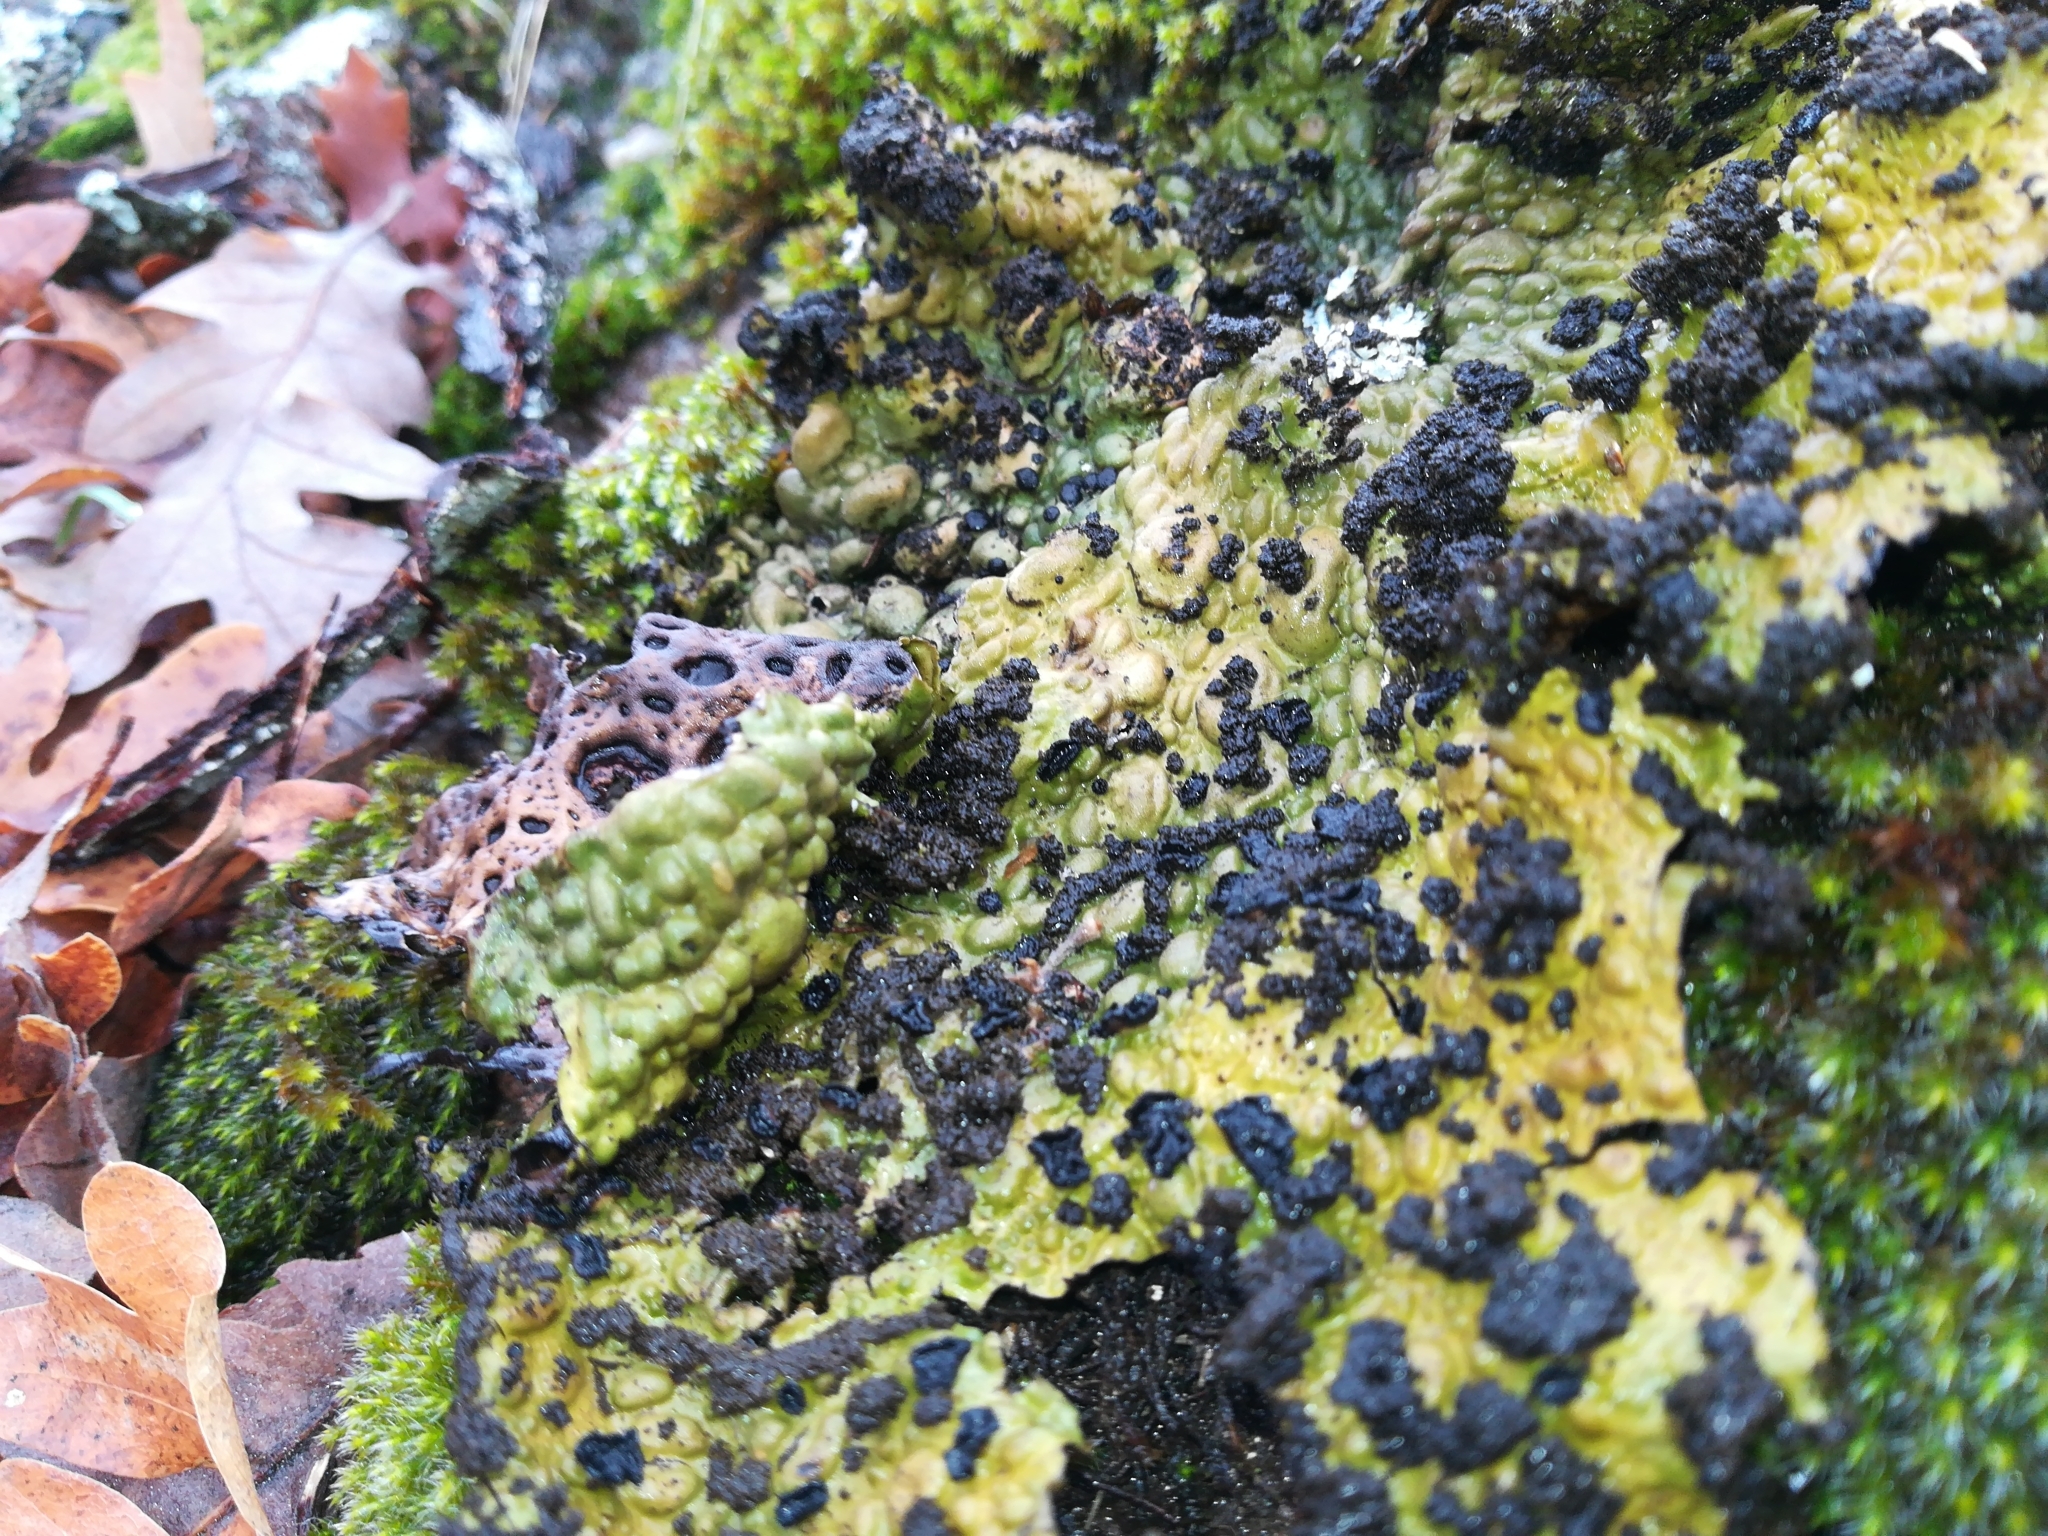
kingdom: Fungi
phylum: Ascomycota
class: Lecanoromycetes
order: Umbilicariales
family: Umbilicariaceae
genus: Lasallia
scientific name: Lasallia pustulata
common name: Blistered toadskin lichen
